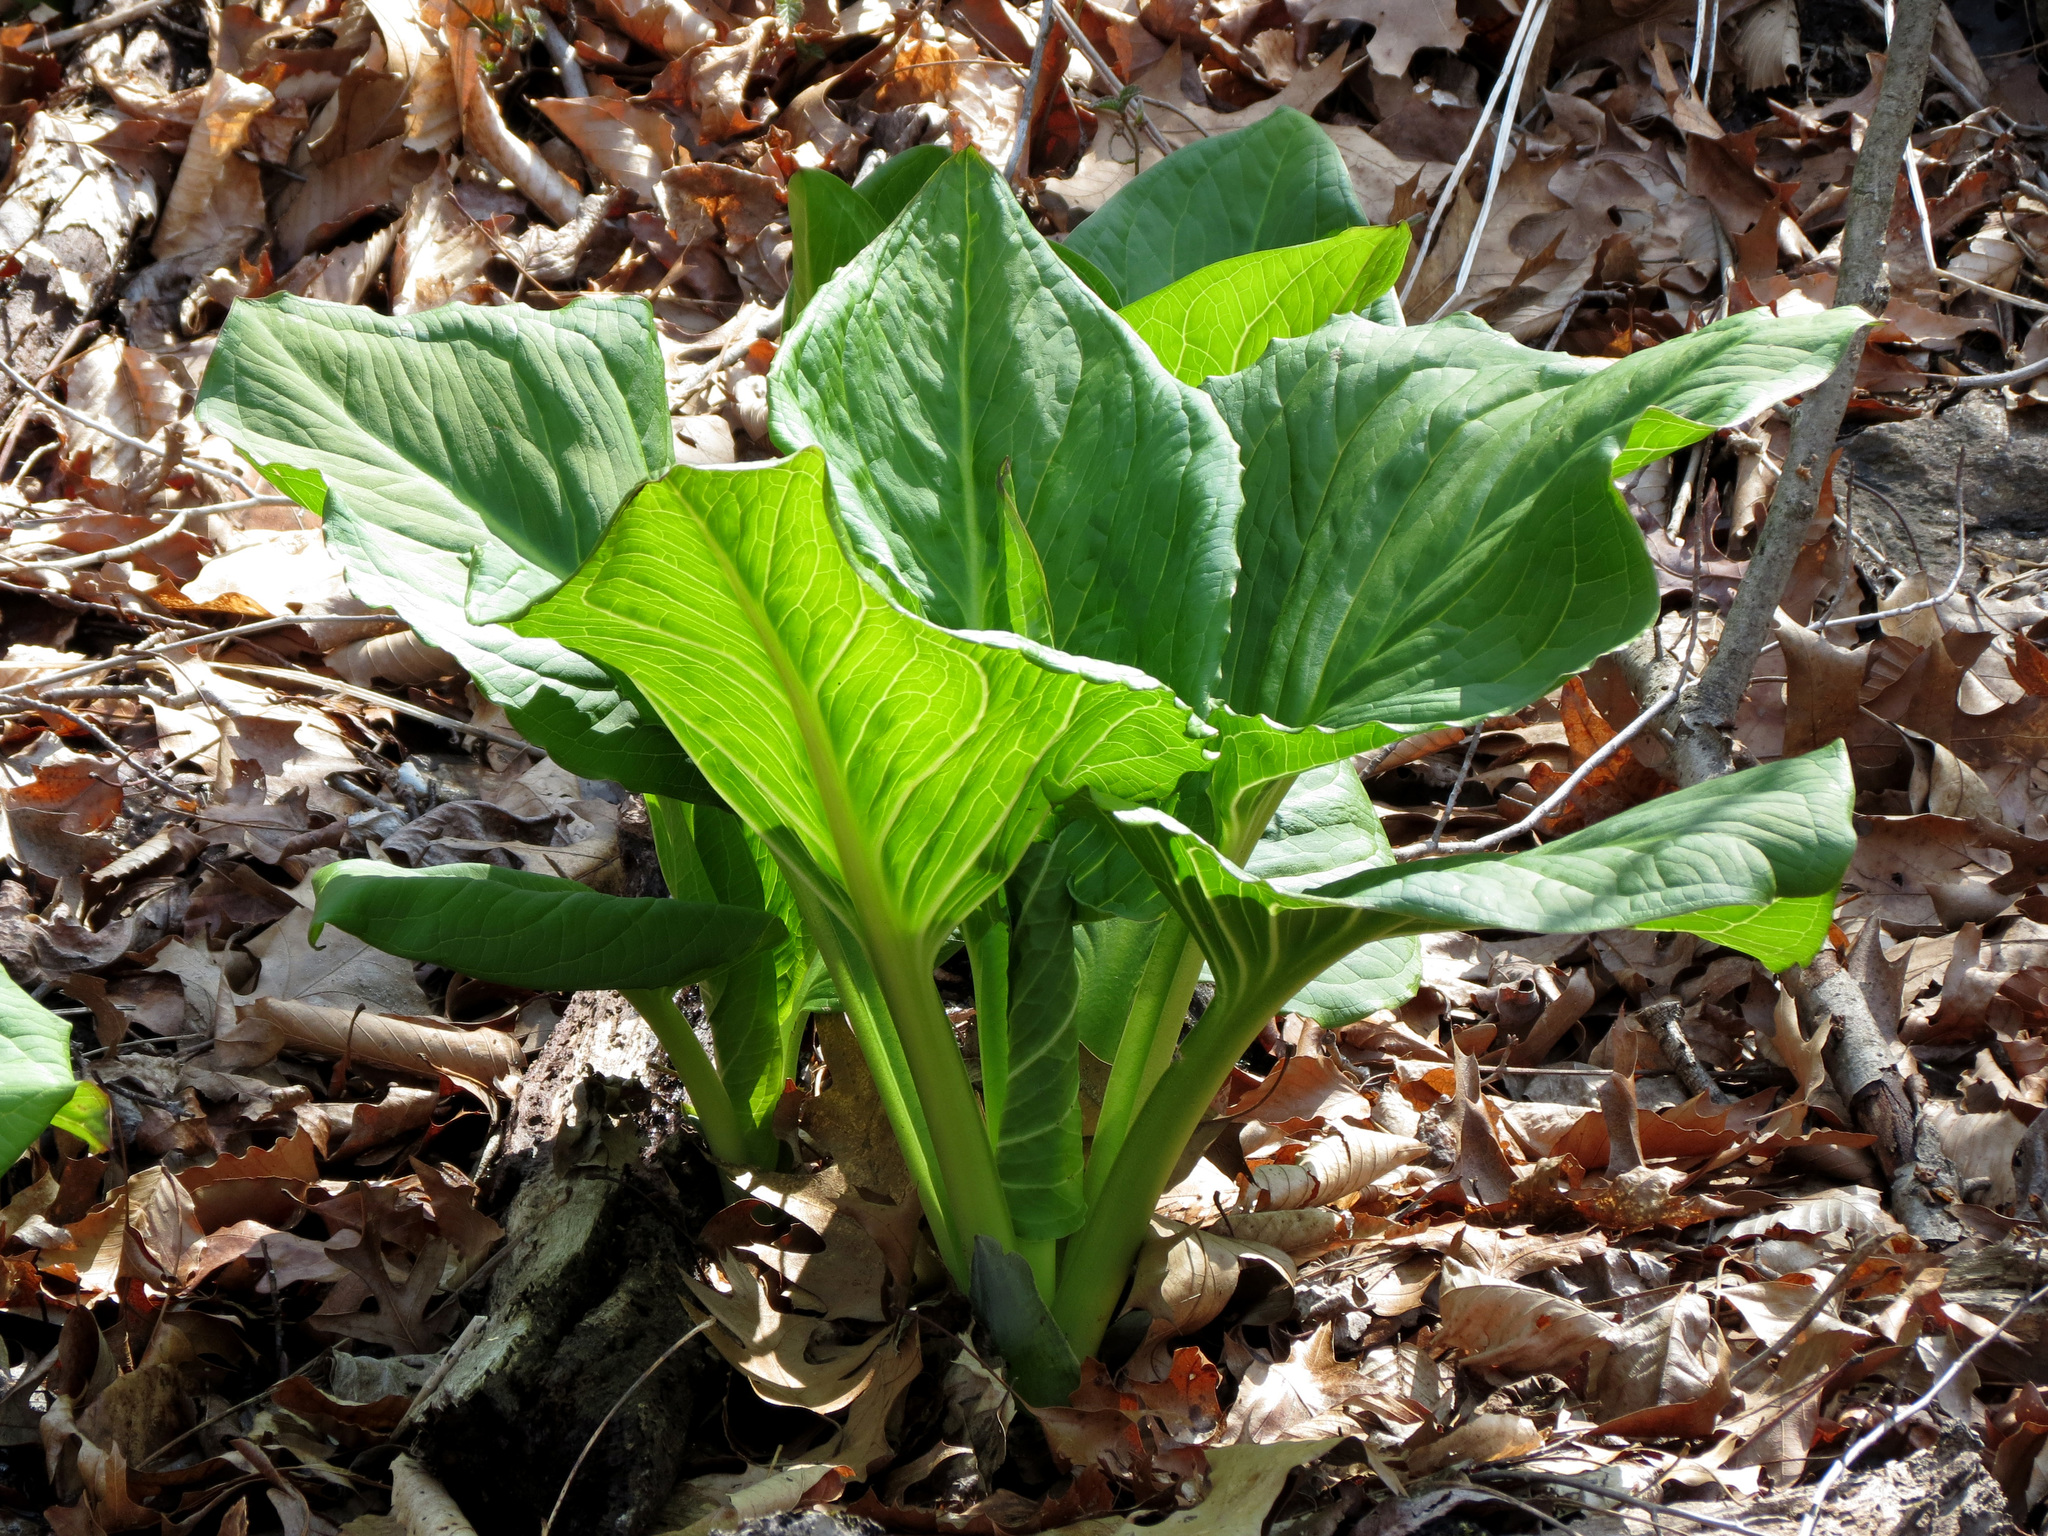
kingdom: Plantae
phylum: Tracheophyta
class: Liliopsida
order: Alismatales
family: Araceae
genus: Symplocarpus
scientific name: Symplocarpus foetidus
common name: Eastern skunk cabbage
